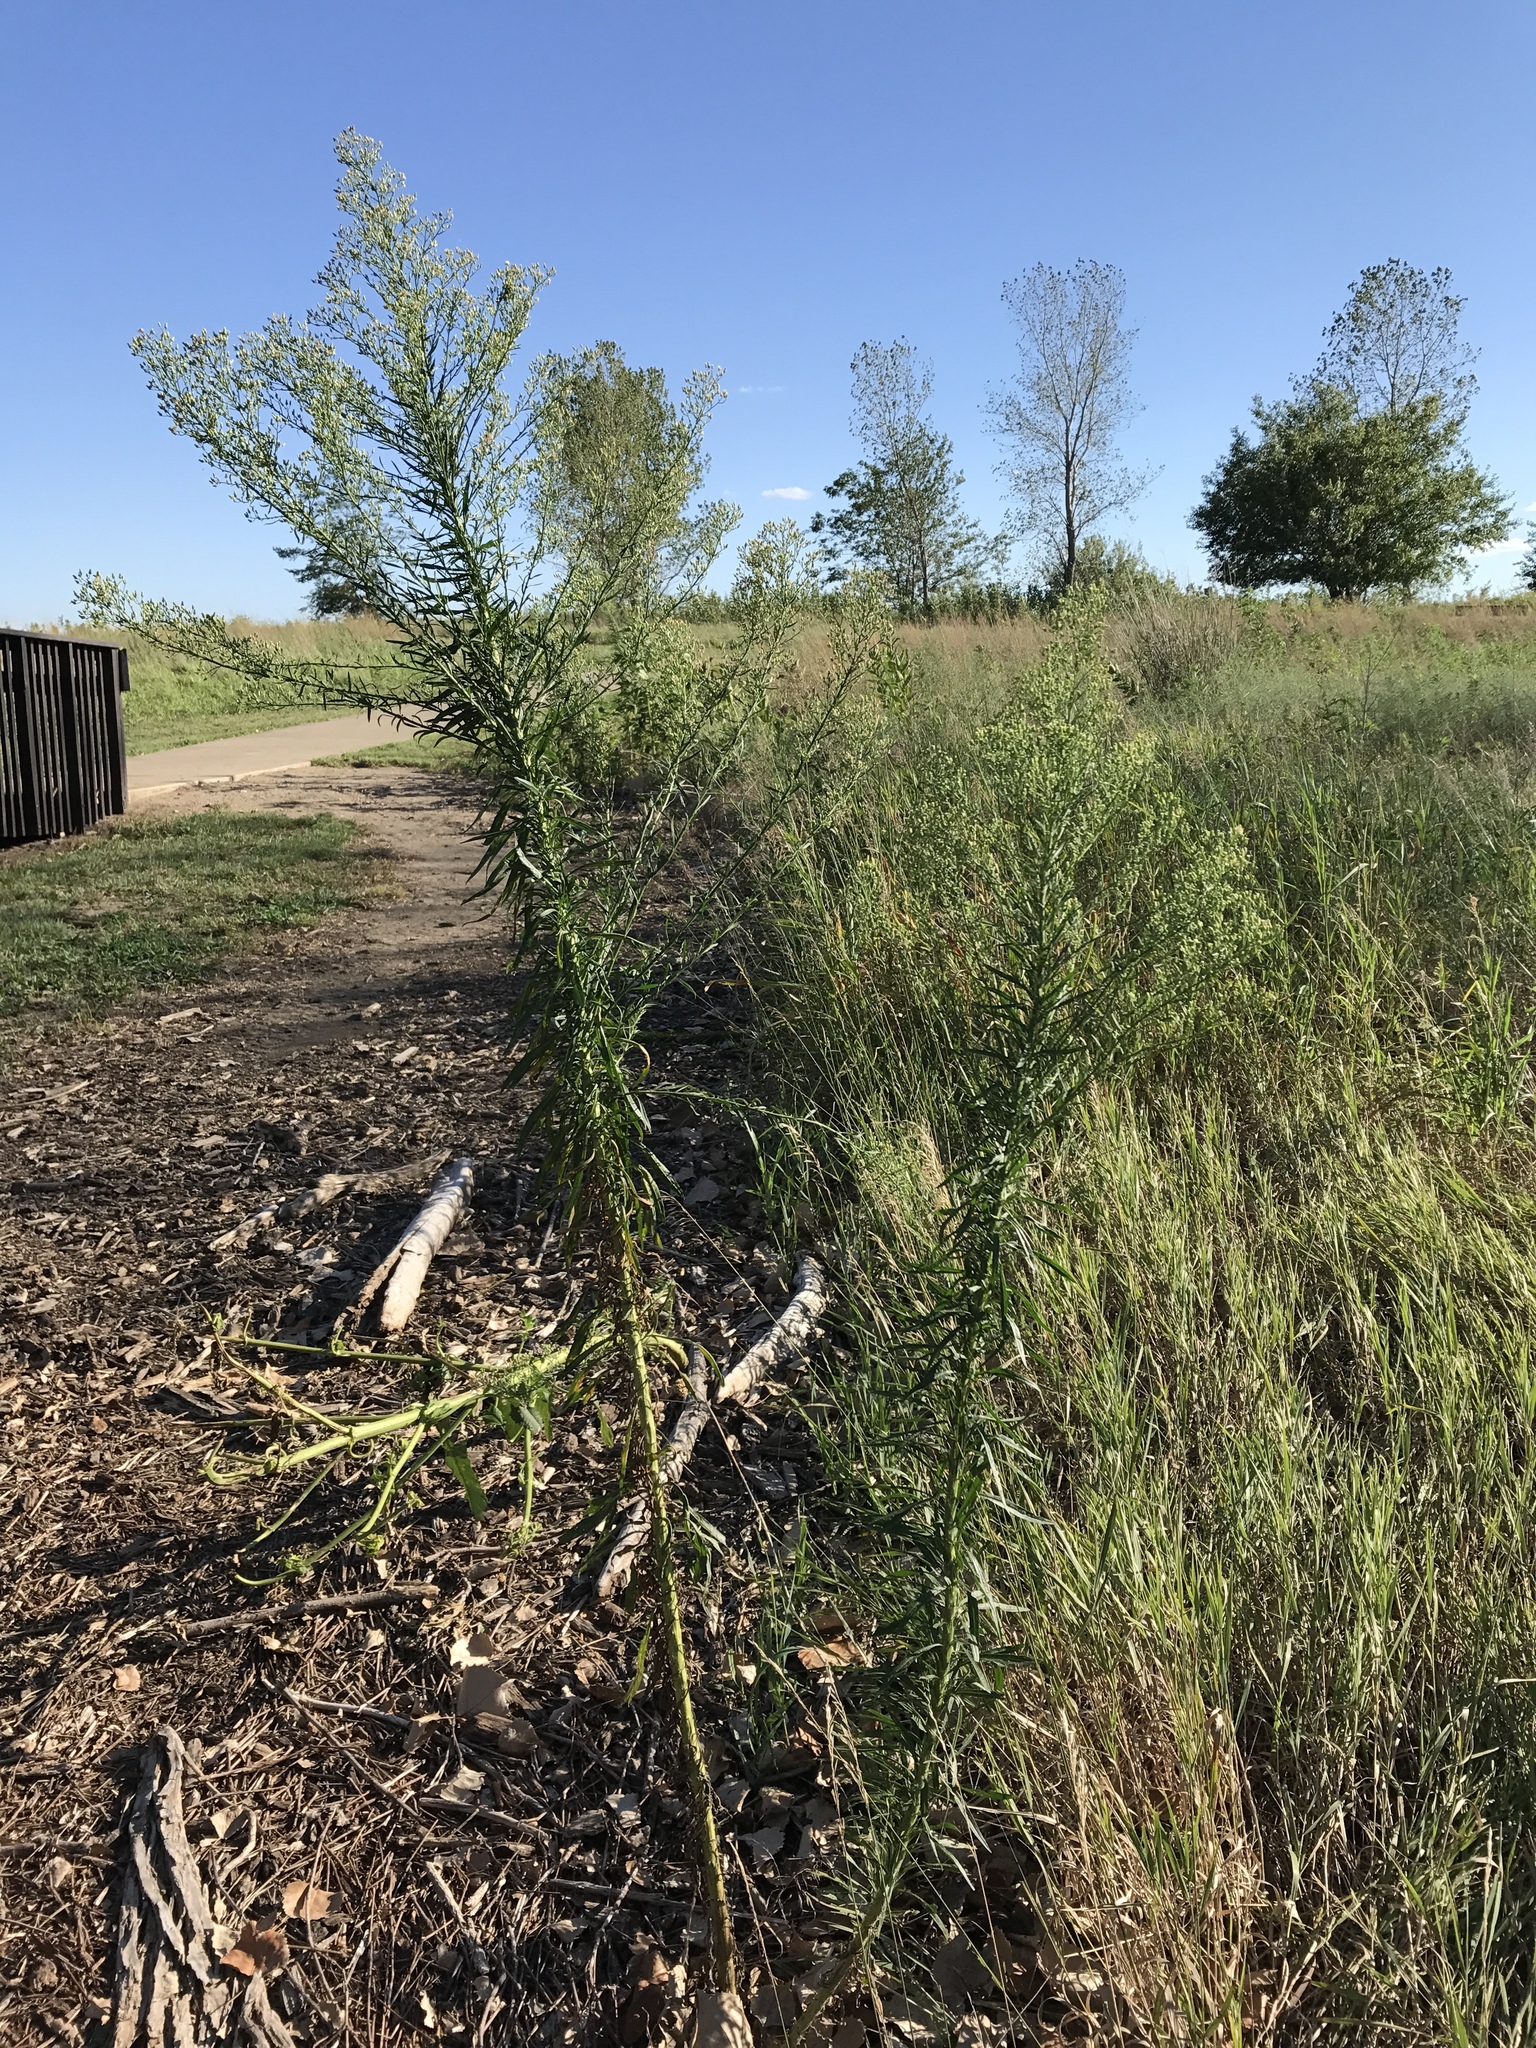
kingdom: Plantae
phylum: Tracheophyta
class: Magnoliopsida
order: Asterales
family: Asteraceae
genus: Erigeron
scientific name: Erigeron canadensis
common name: Canadian fleabane
